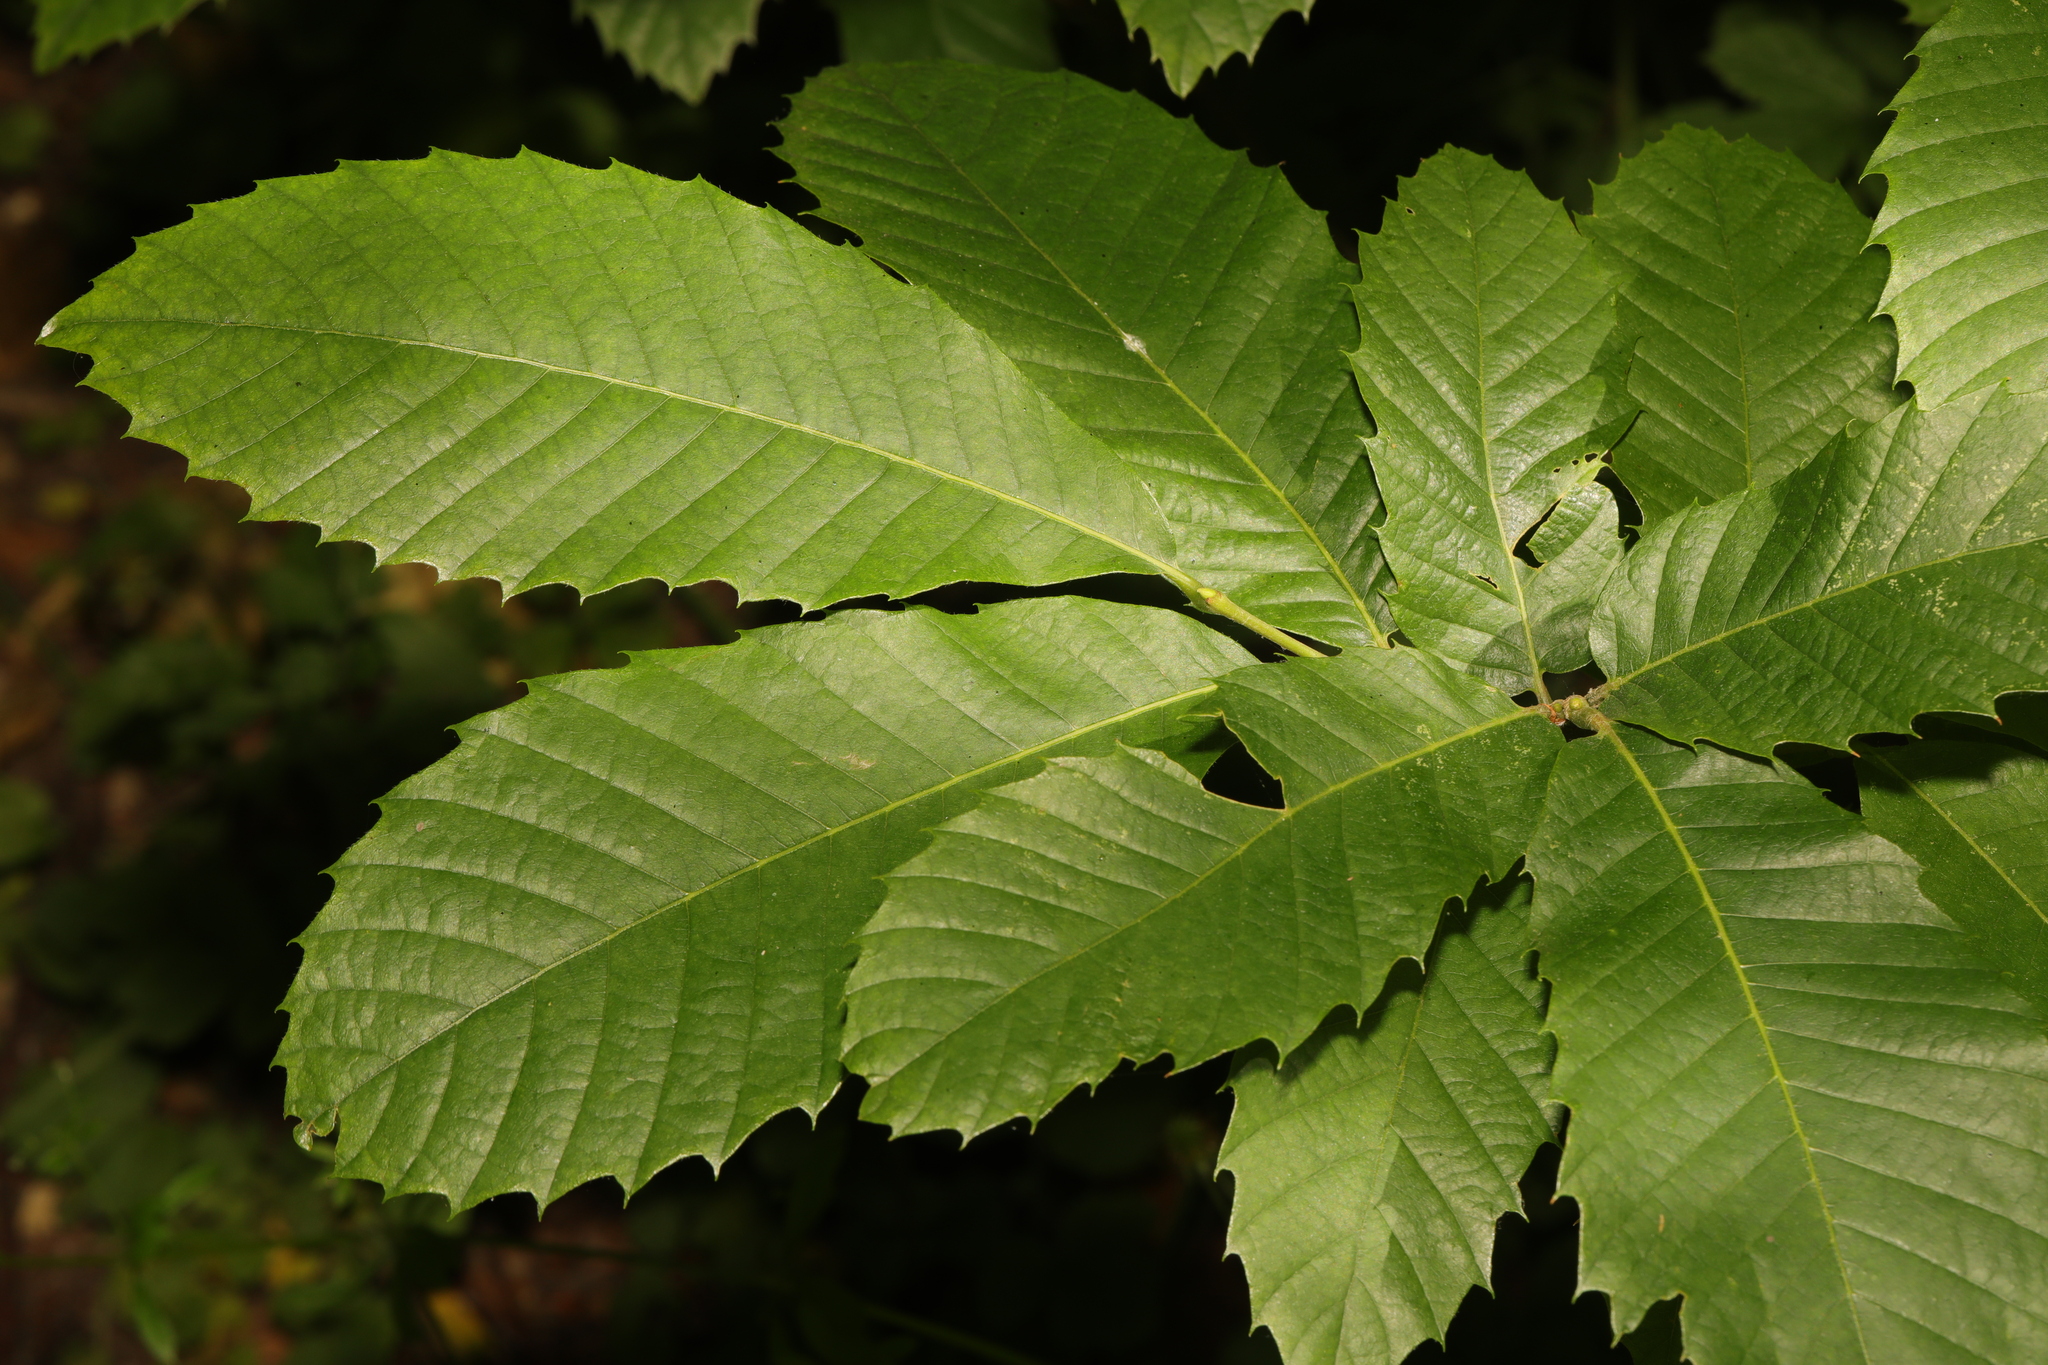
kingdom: Plantae
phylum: Tracheophyta
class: Magnoliopsida
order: Fagales
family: Fagaceae
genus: Castanea
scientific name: Castanea sativa
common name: Sweet chestnut
